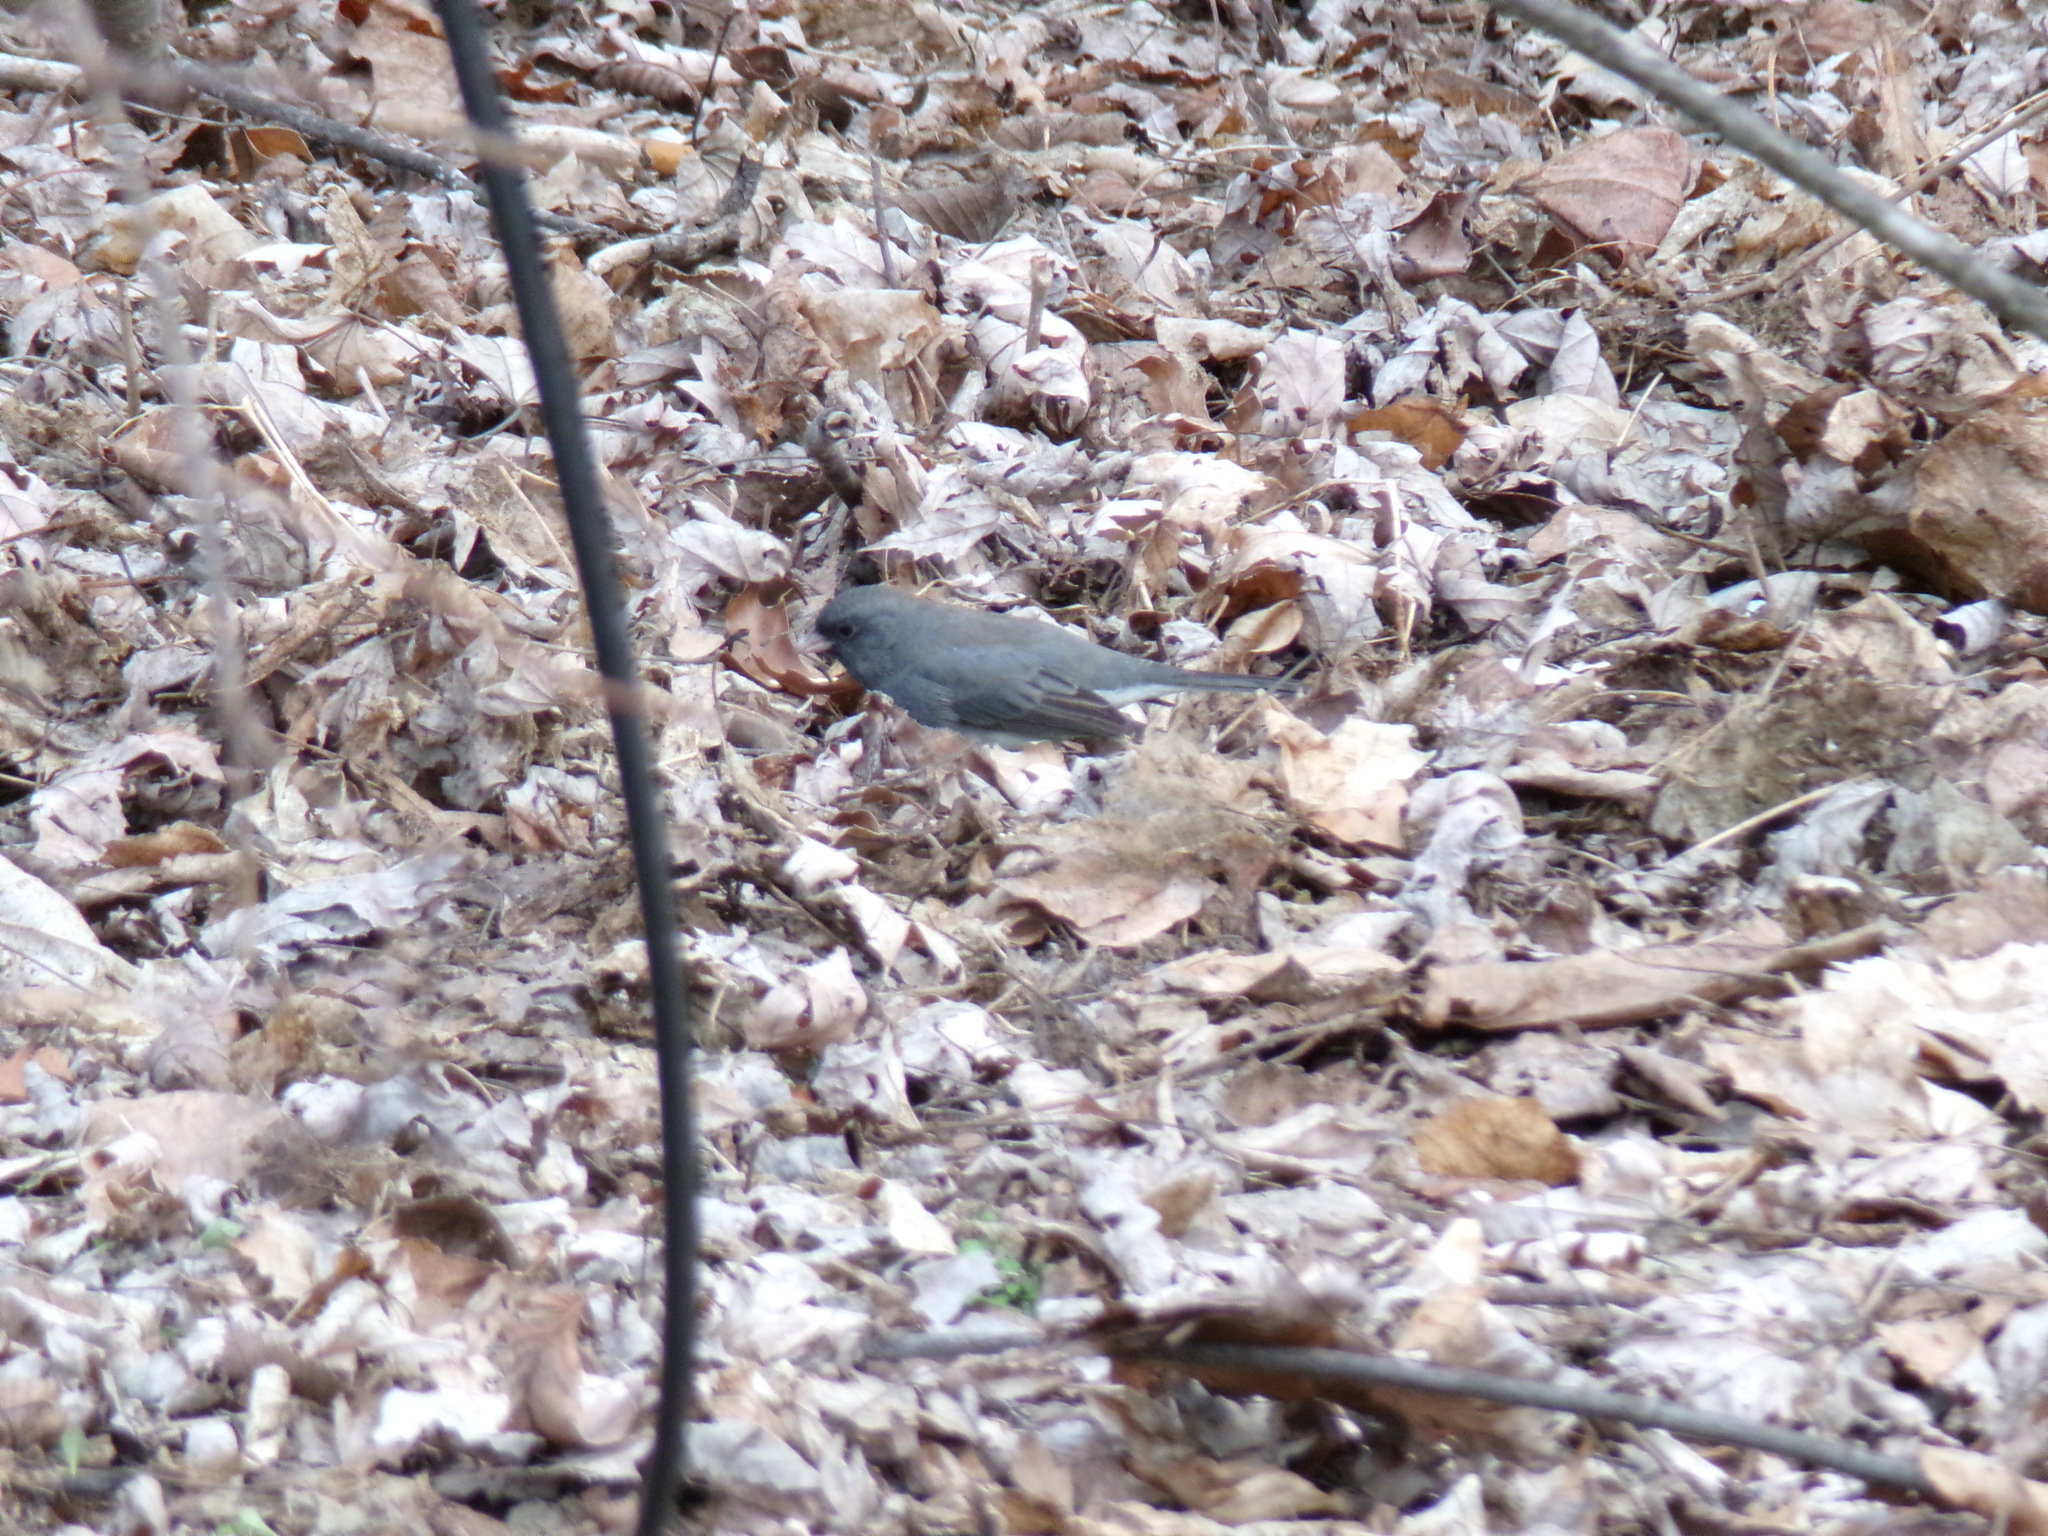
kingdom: Animalia
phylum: Chordata
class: Aves
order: Passeriformes
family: Passerellidae
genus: Junco
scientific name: Junco hyemalis
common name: Dark-eyed junco
